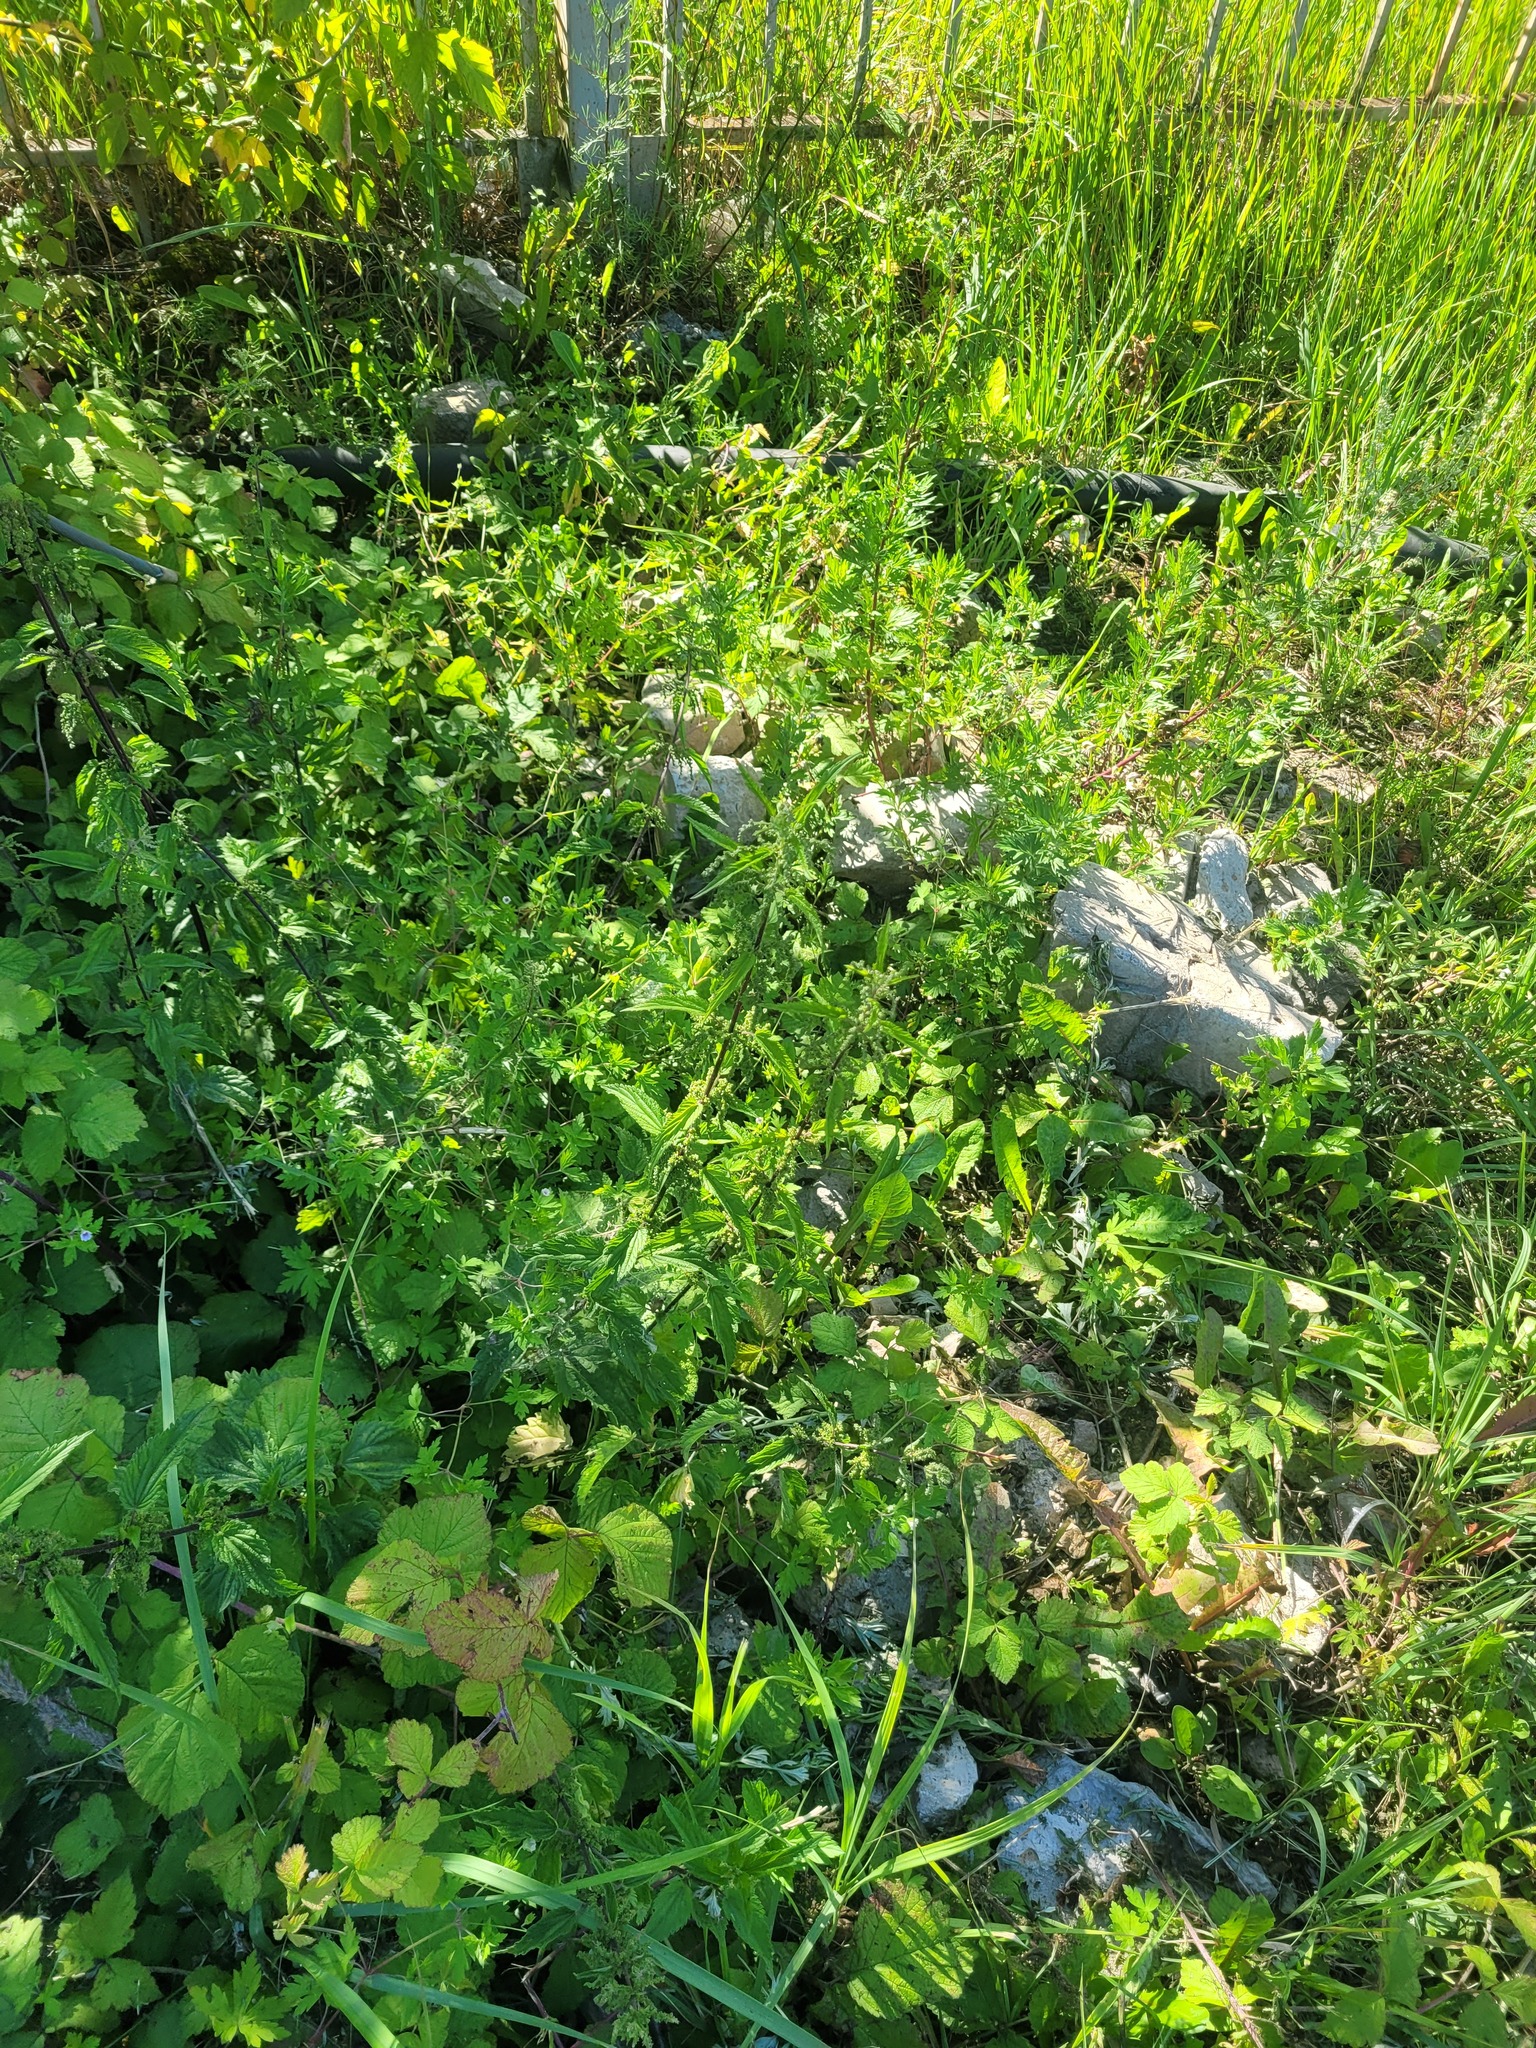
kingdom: Plantae
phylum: Tracheophyta
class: Magnoliopsida
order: Rosales
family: Urticaceae
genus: Urtica
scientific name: Urtica dioica
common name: Common nettle
